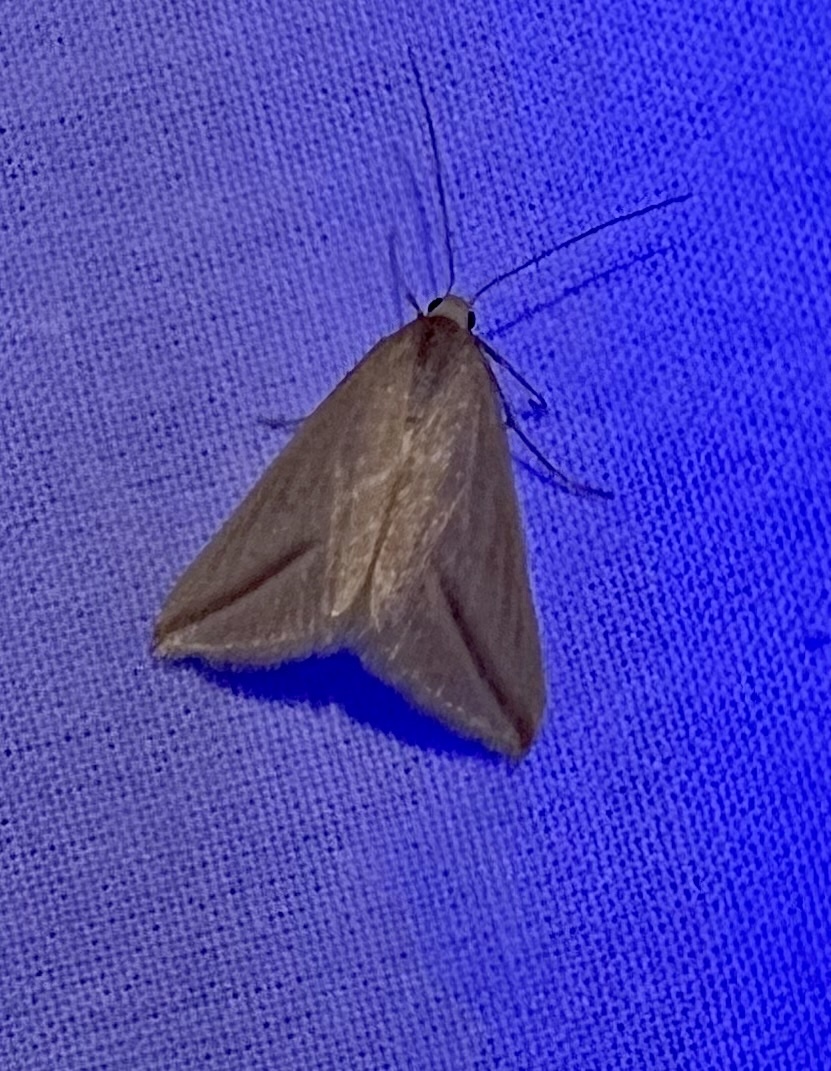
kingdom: Animalia
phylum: Arthropoda
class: Insecta
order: Lepidoptera
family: Geometridae
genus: Rhodometra
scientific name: Rhodometra sacraria
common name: Vestal
